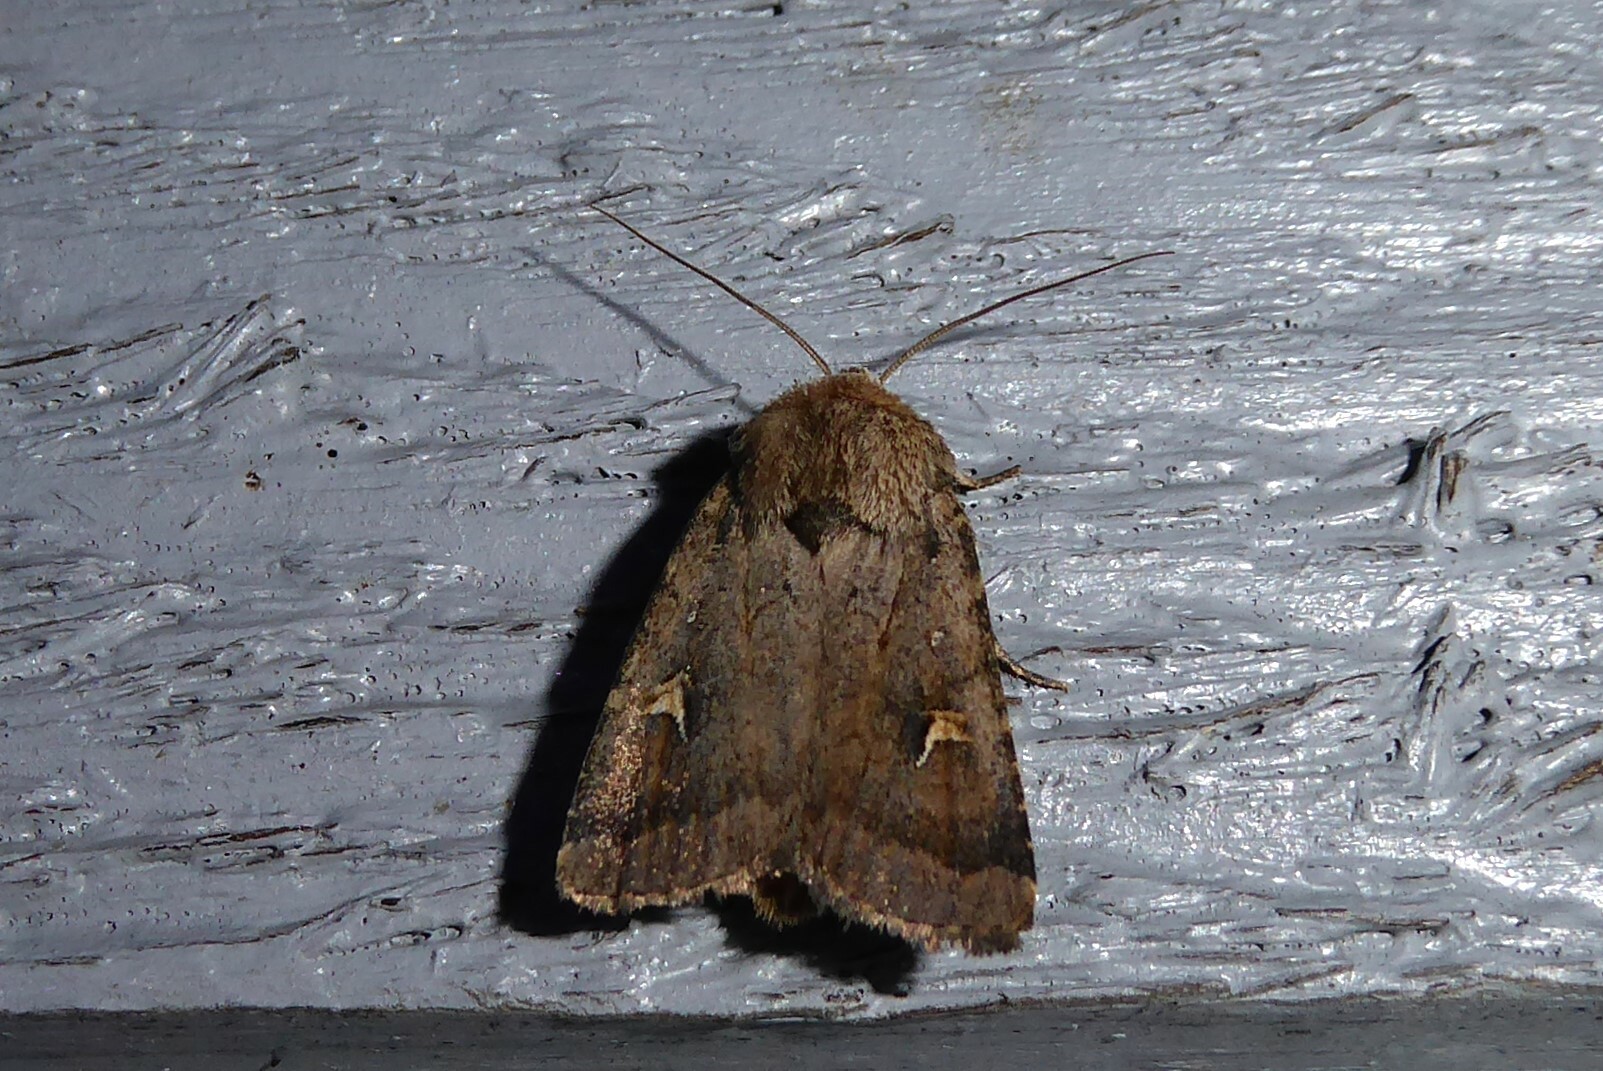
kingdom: Animalia
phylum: Arthropoda
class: Insecta
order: Lepidoptera
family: Noctuidae
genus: Proteuxoa
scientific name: Proteuxoa tetronycha
